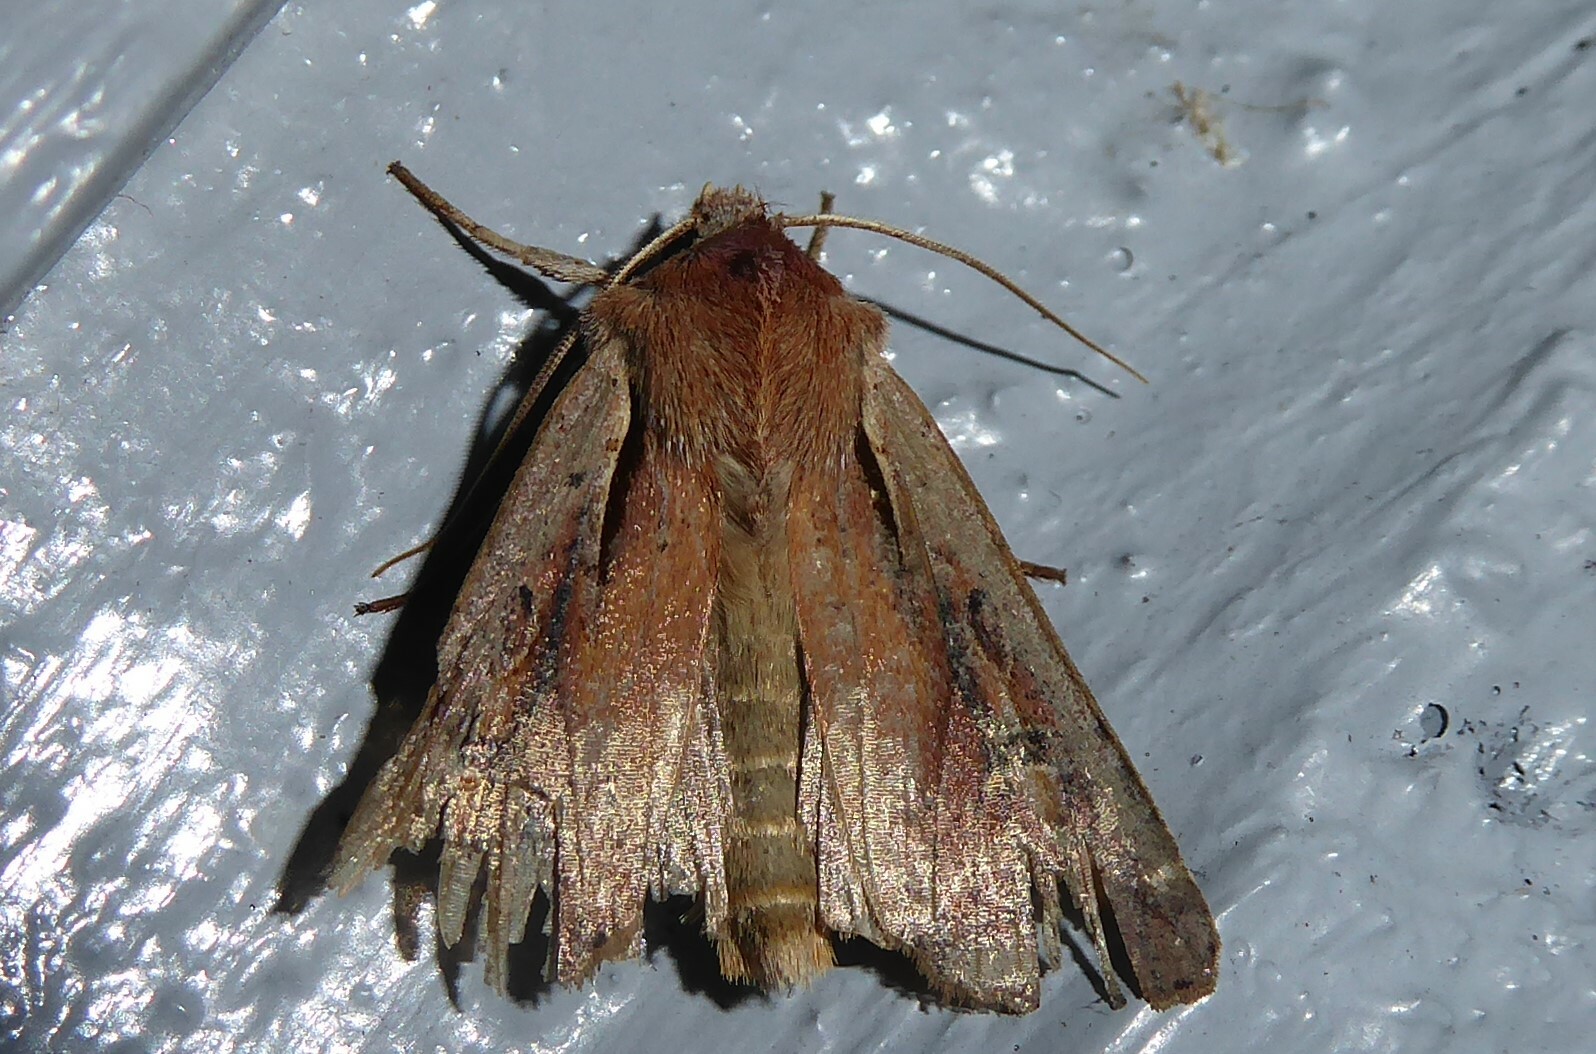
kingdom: Animalia
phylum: Arthropoda
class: Insecta
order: Lepidoptera
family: Noctuidae
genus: Ichneutica
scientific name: Ichneutica atristriga
